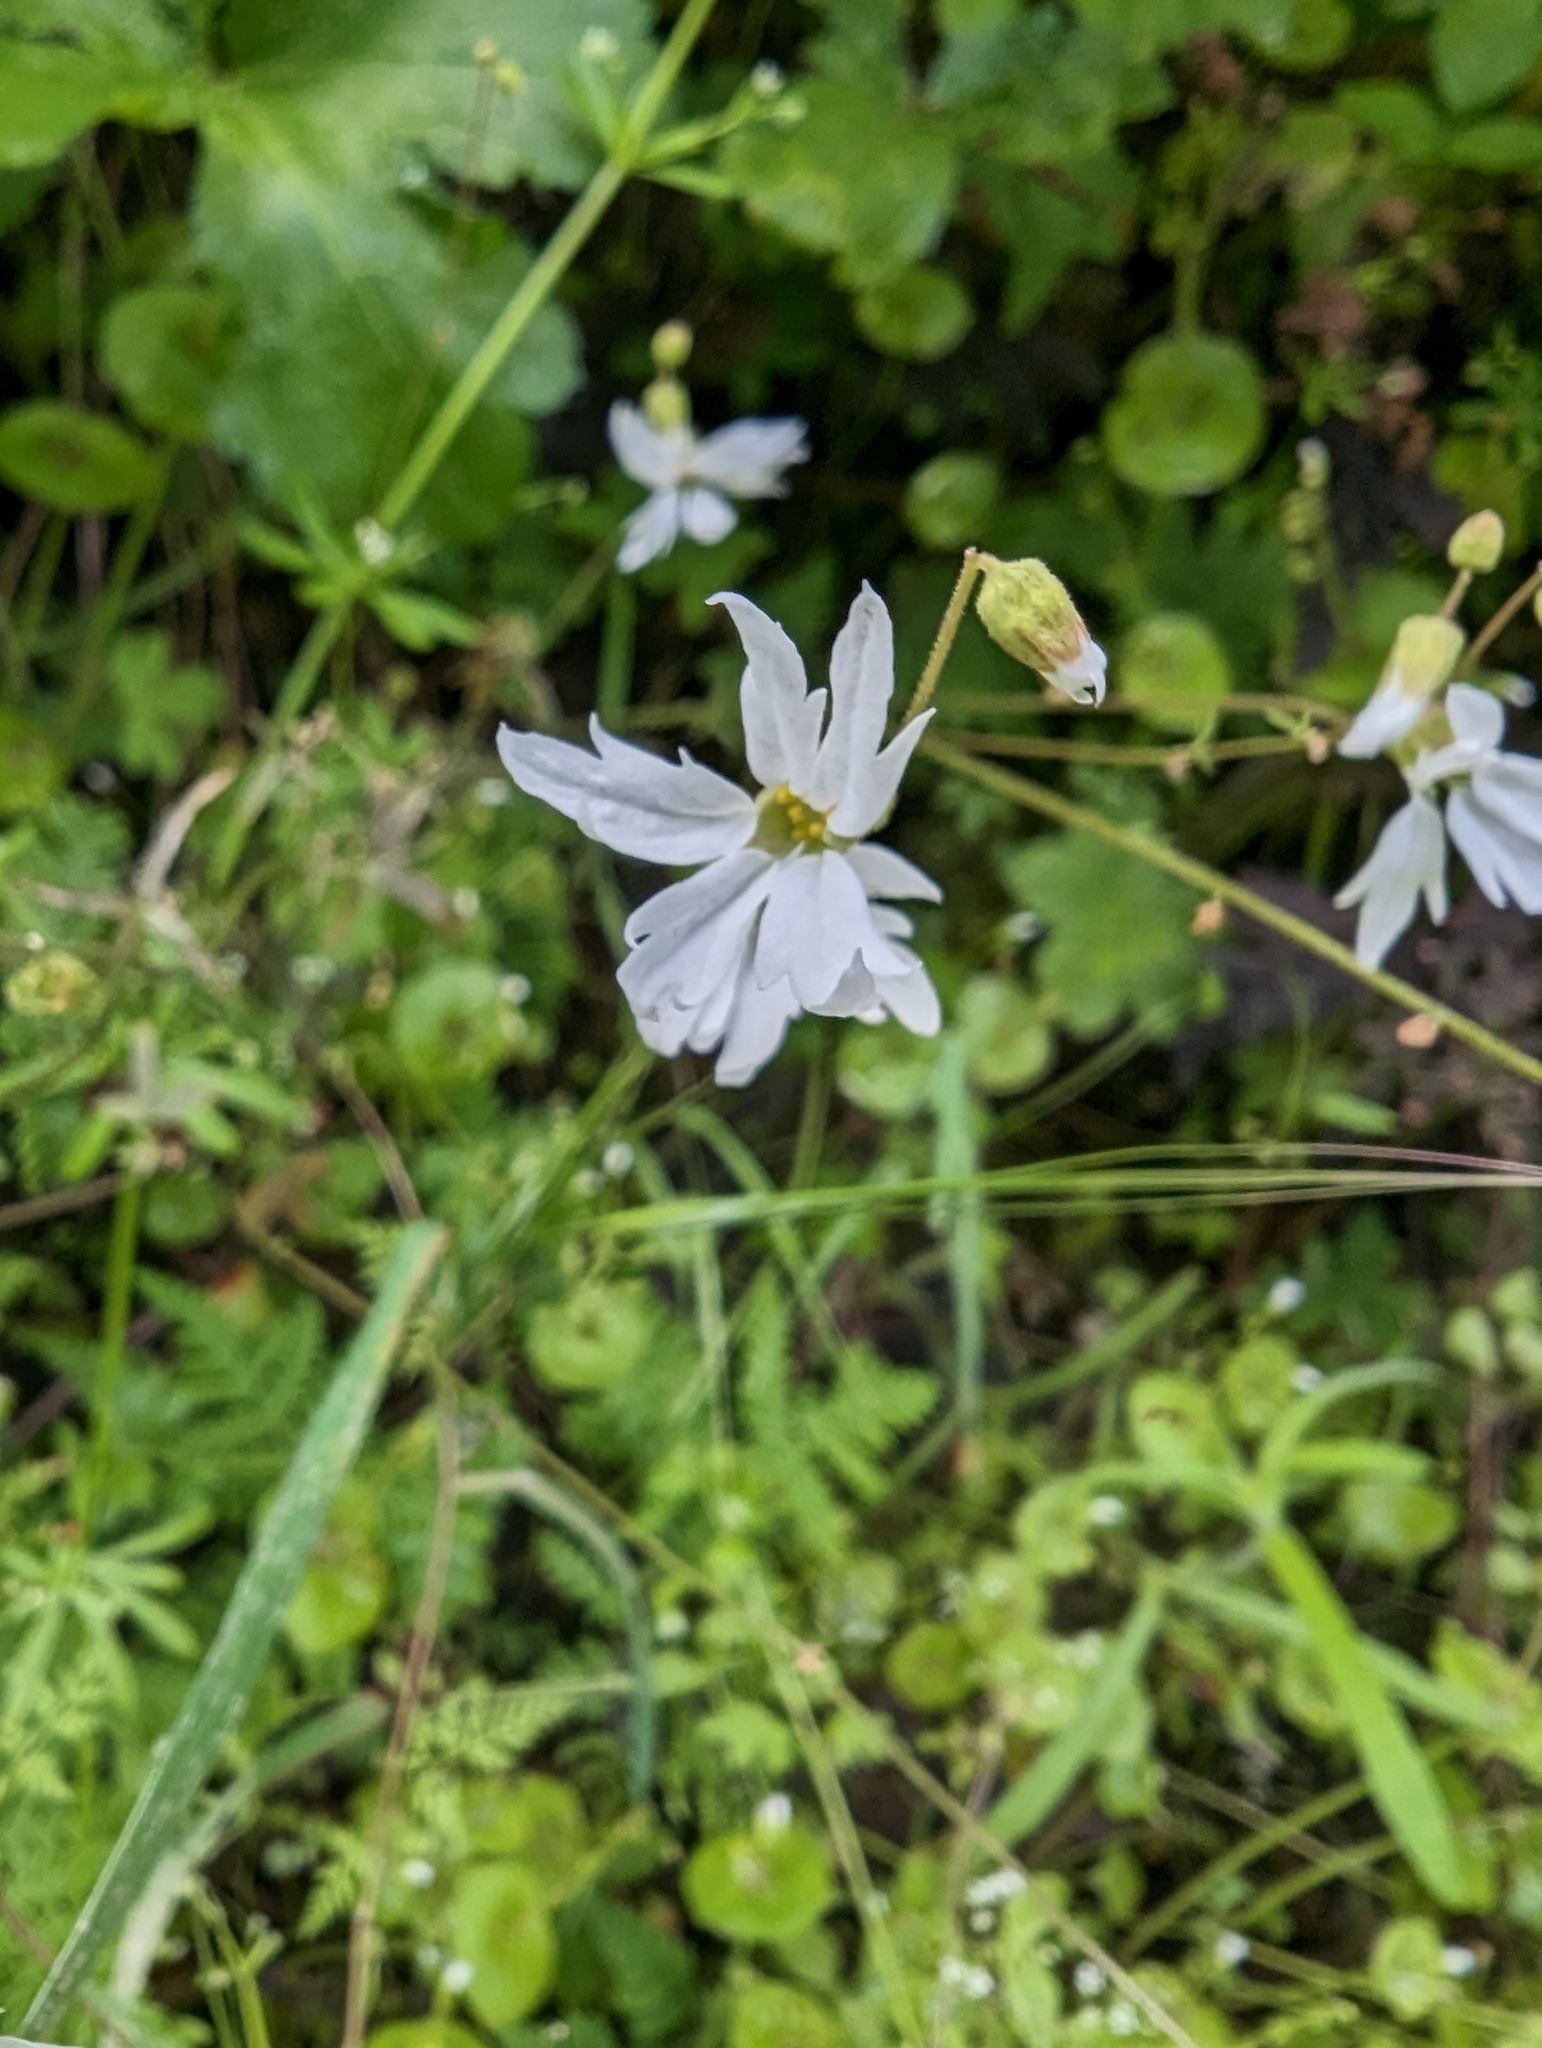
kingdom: Plantae
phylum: Tracheophyta
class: Magnoliopsida
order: Saxifragales
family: Saxifragaceae
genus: Lithophragma
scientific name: Lithophragma heterophyllum
